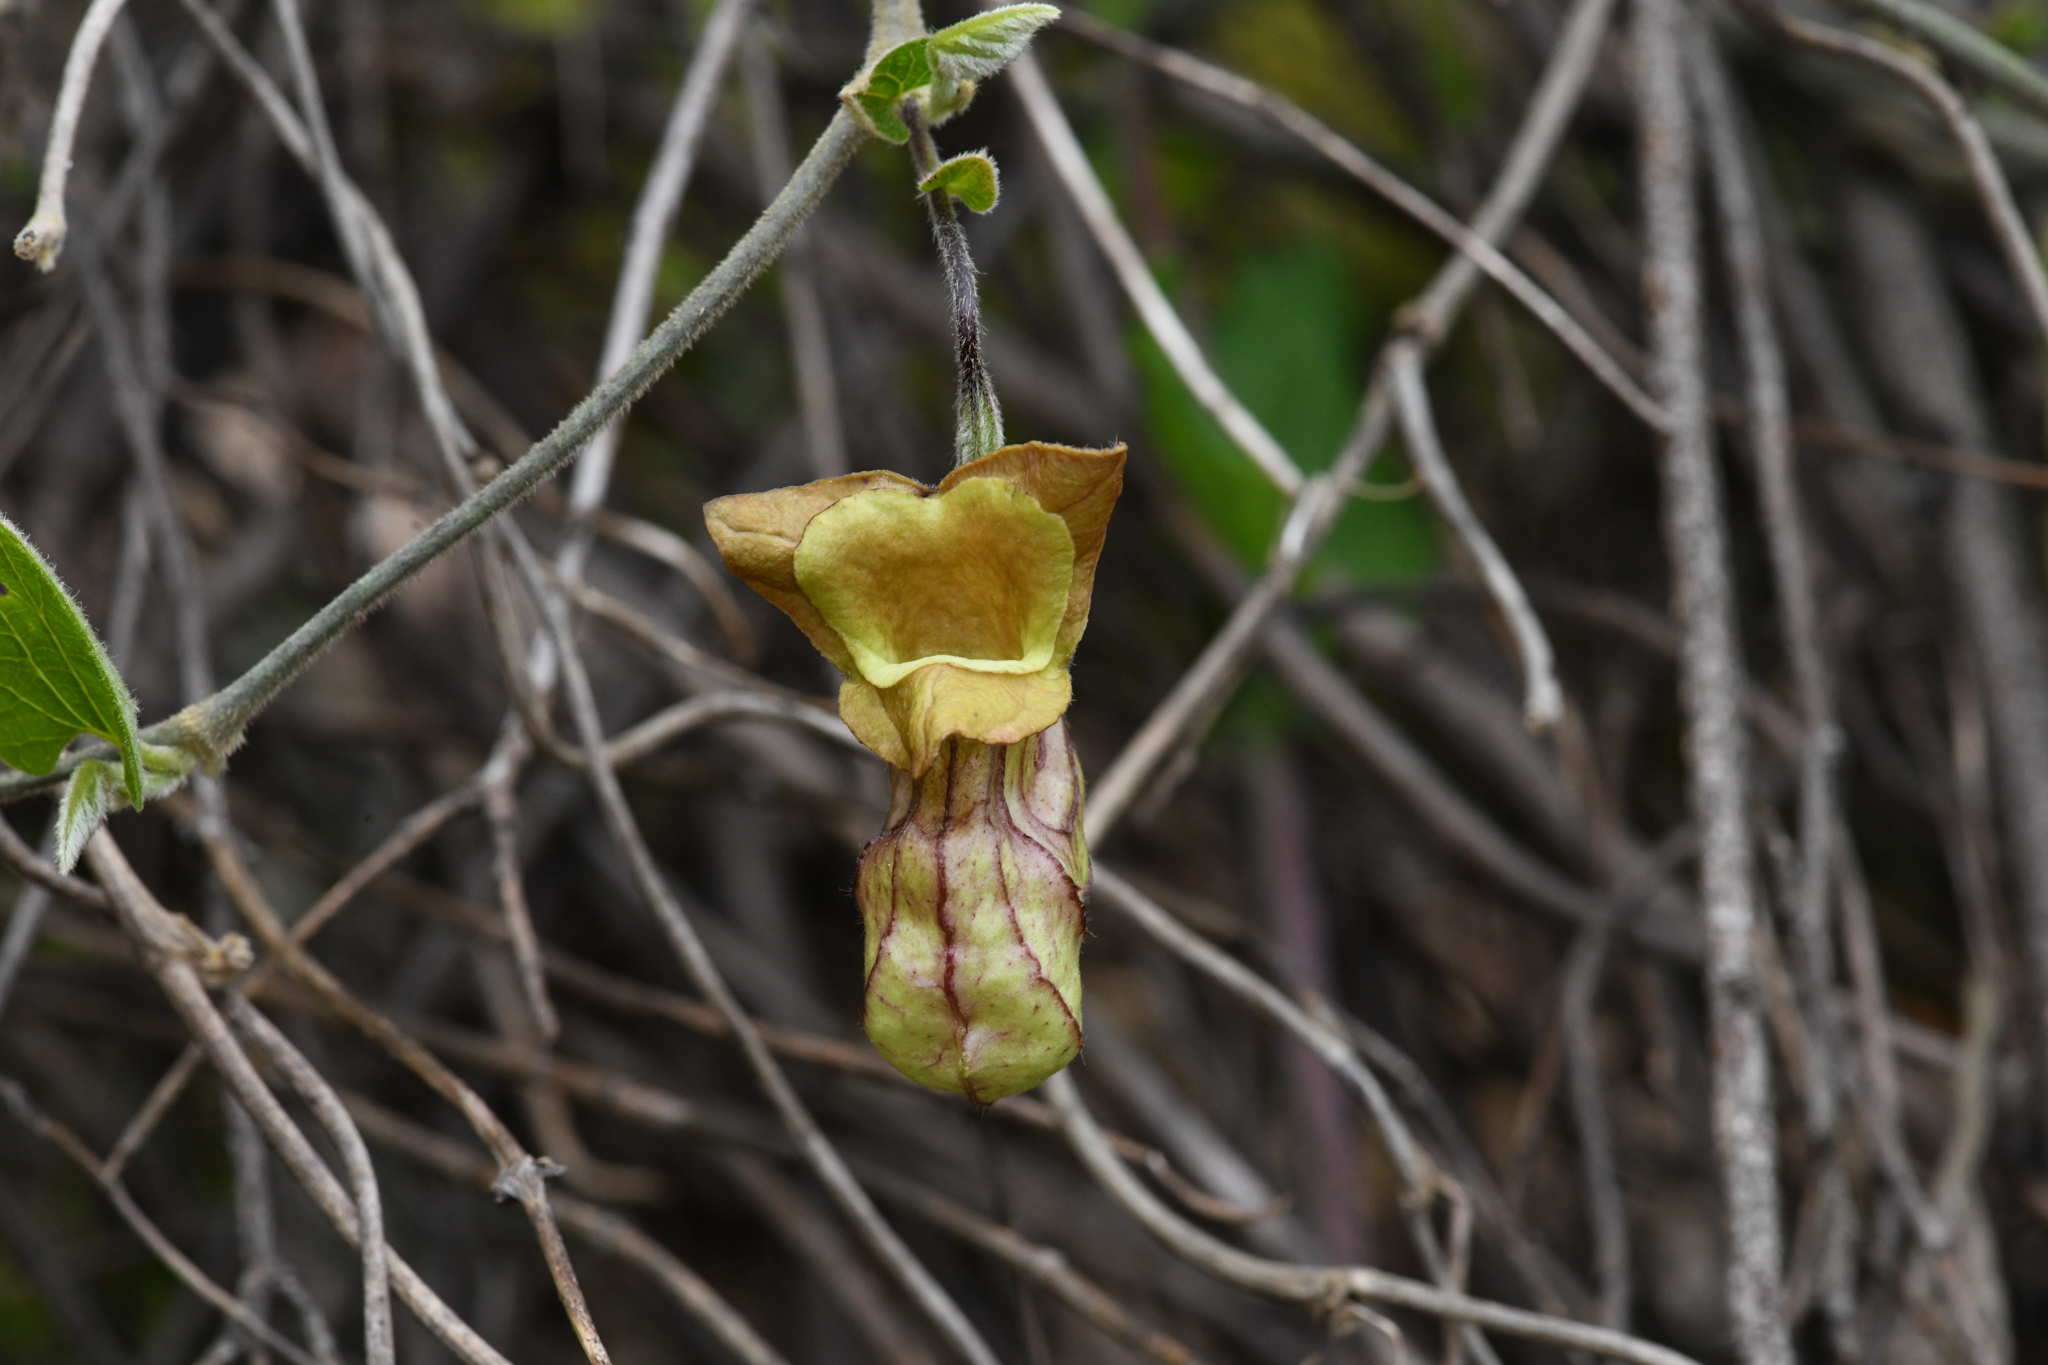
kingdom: Plantae
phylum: Tracheophyta
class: Magnoliopsida
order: Piperales
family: Aristolochiaceae
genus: Isotrema
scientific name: Isotrema californicum
